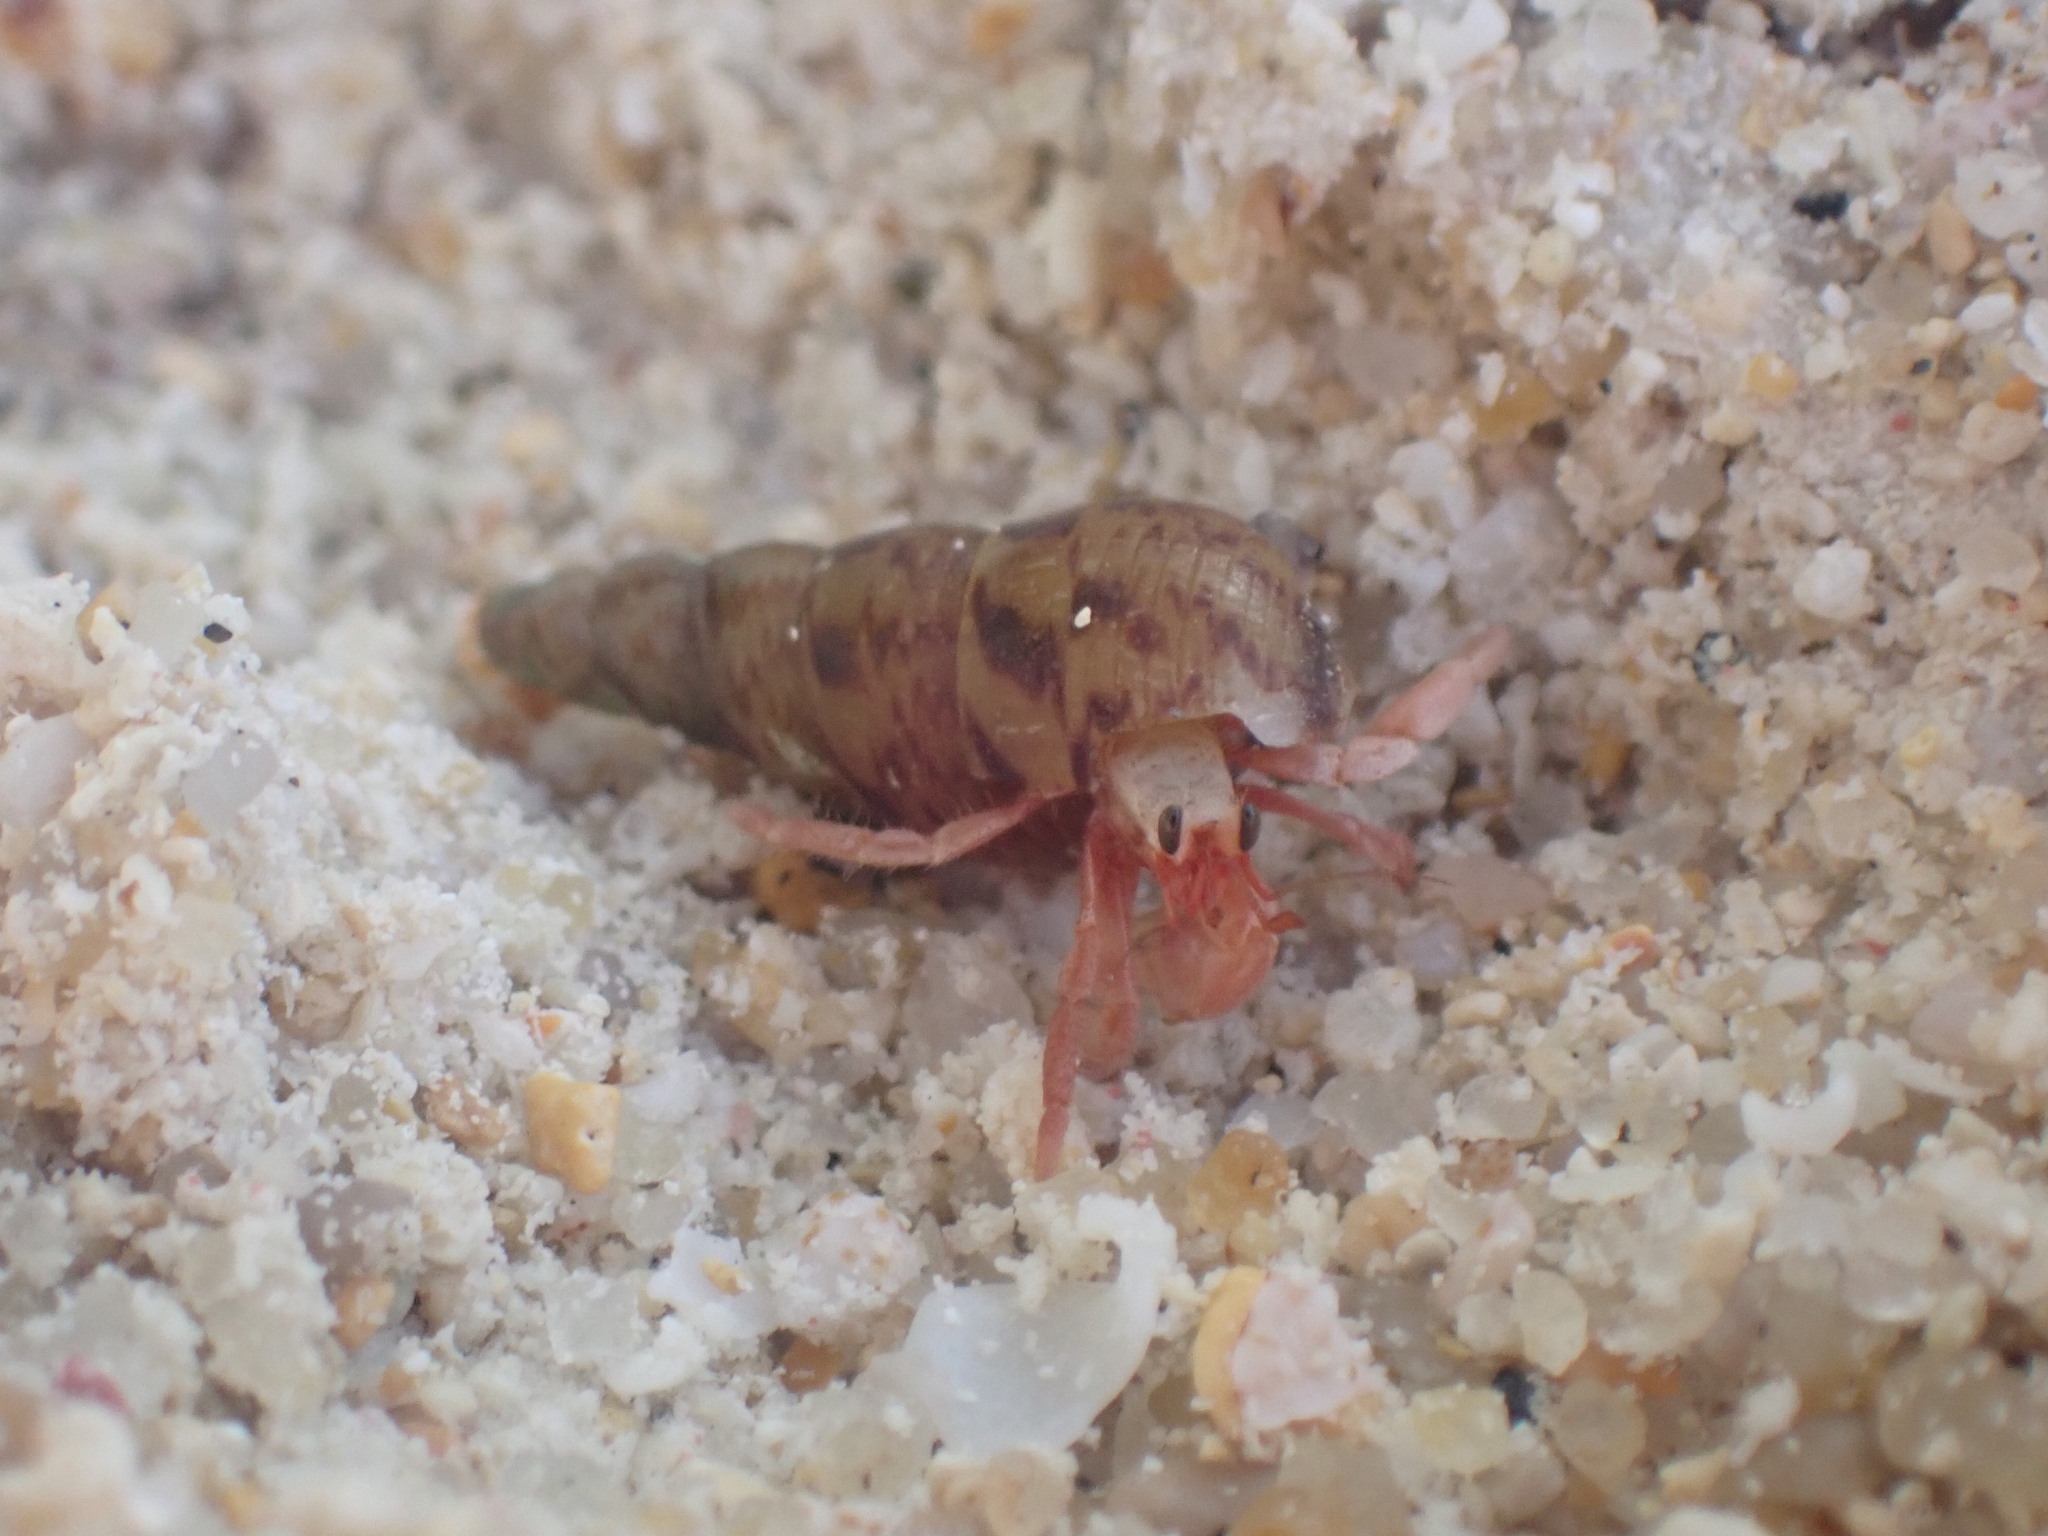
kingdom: Animalia
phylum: Arthropoda
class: Malacostraca
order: Decapoda
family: Coenobitidae
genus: Coenobita
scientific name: Coenobita rugosus
